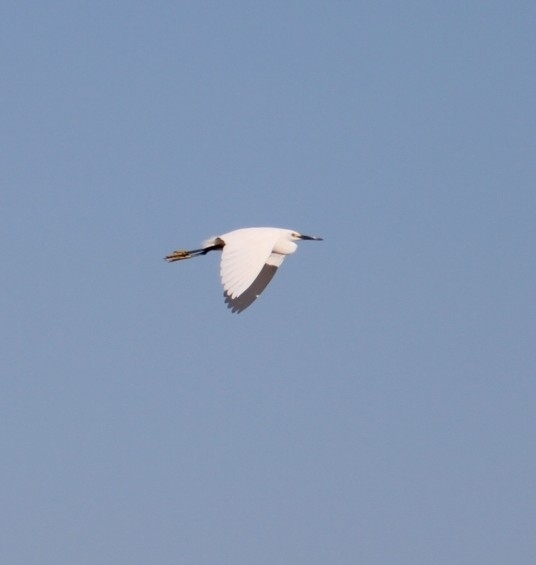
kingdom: Animalia
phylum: Chordata
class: Aves
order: Pelecaniformes
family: Ardeidae
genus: Egretta
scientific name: Egretta thula
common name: Snowy egret
